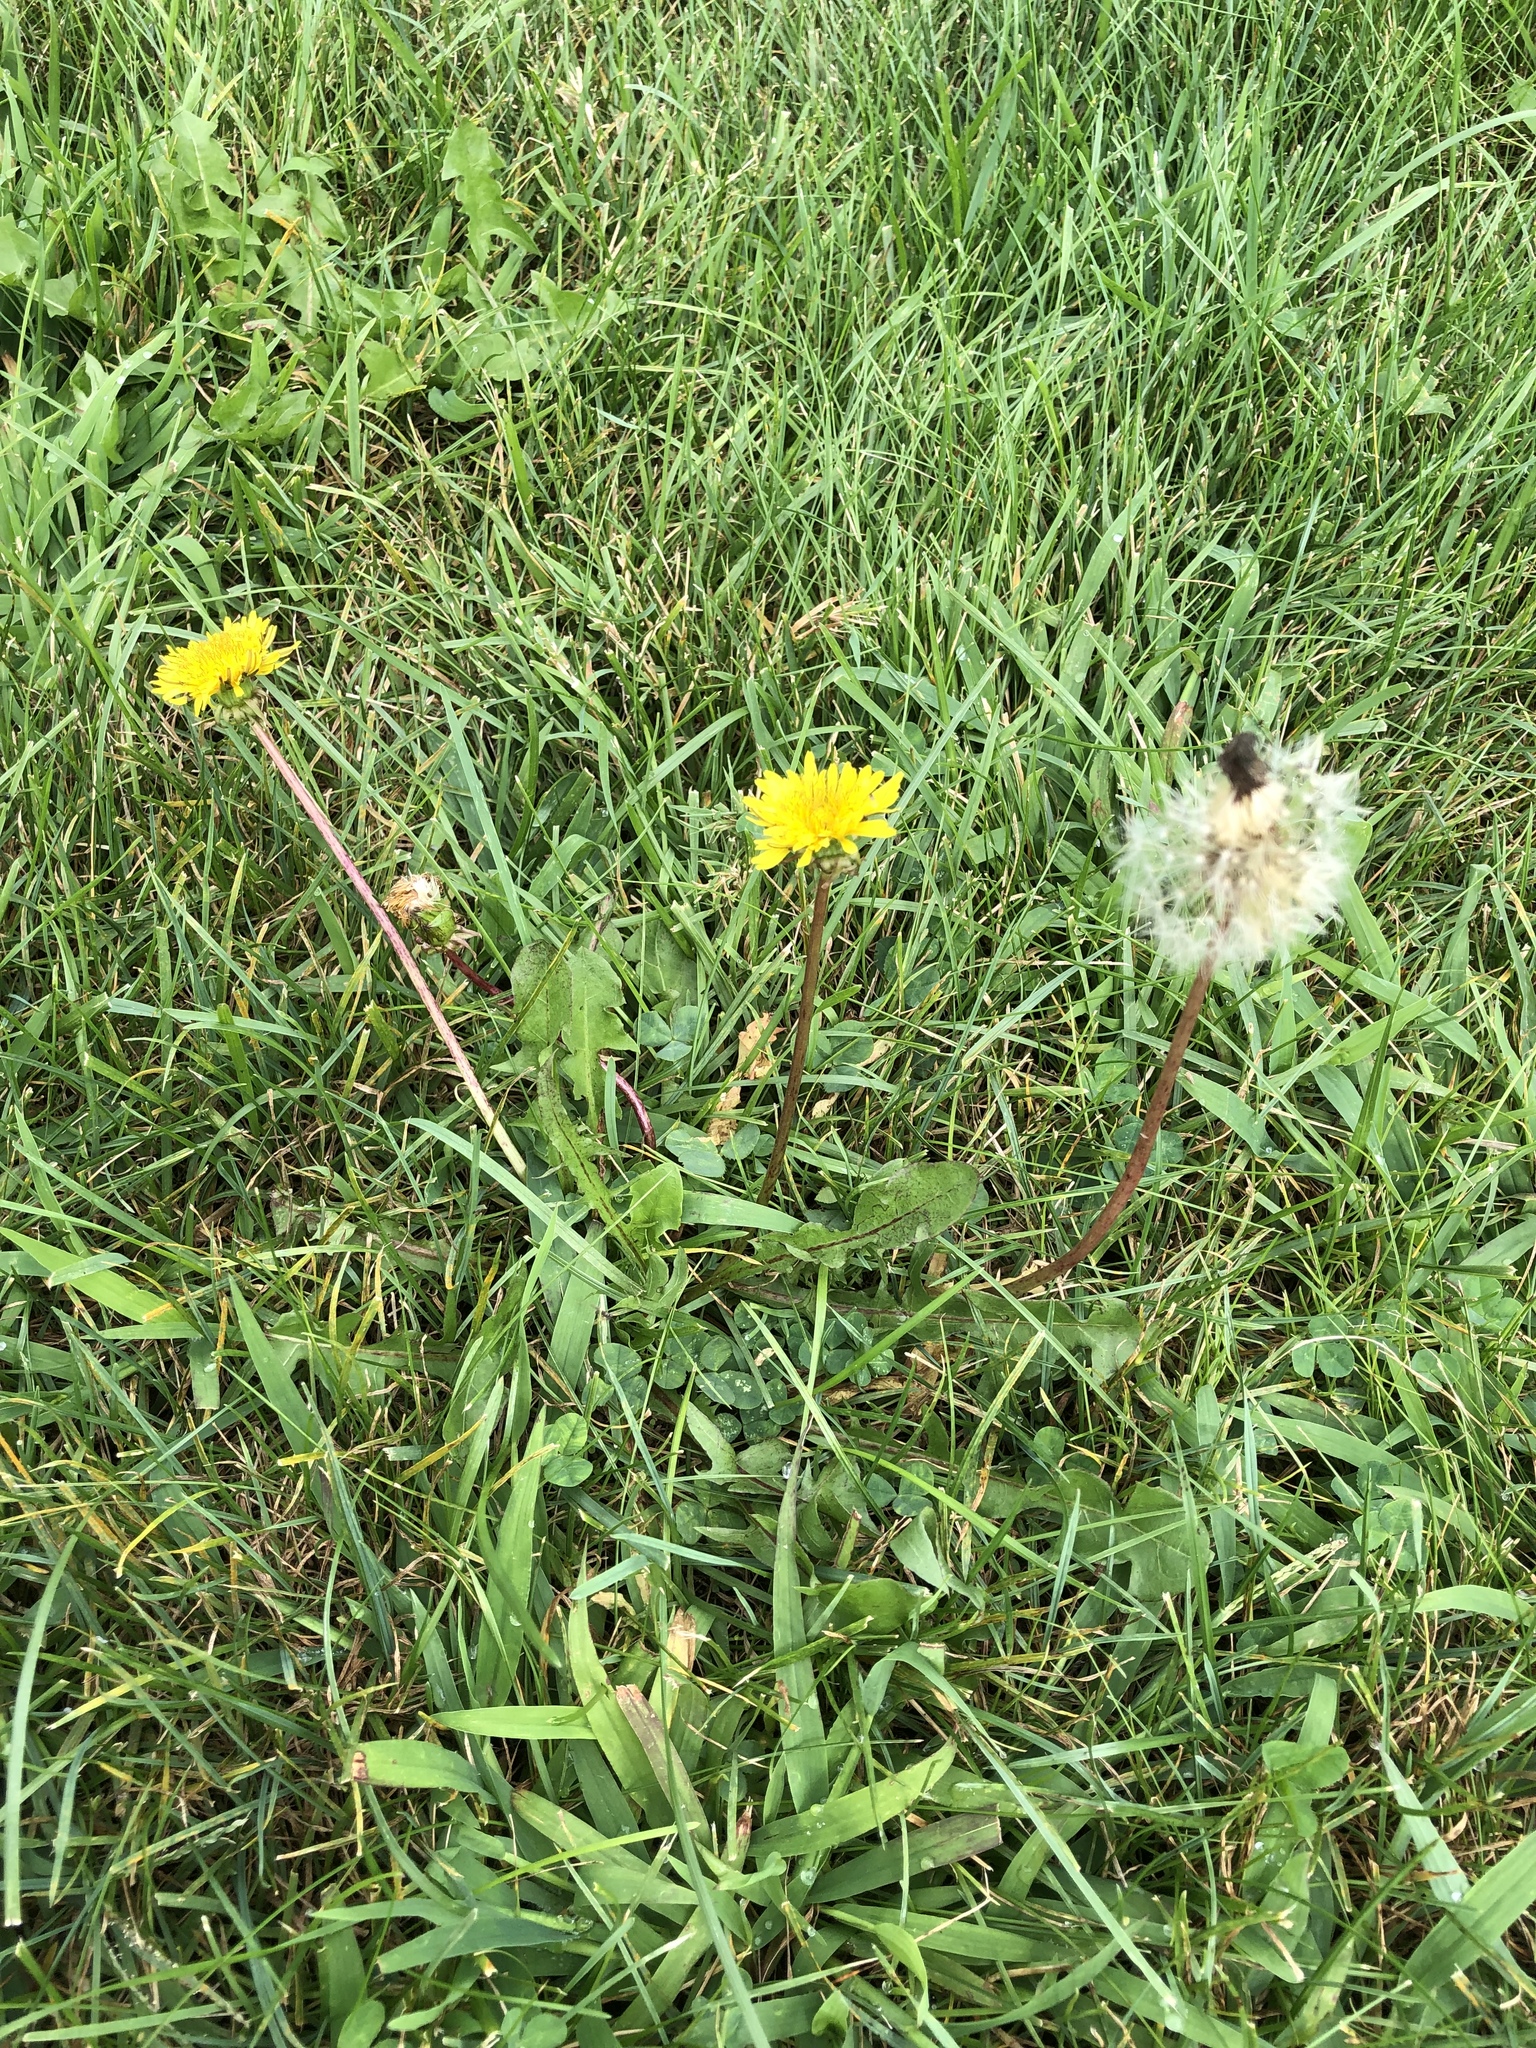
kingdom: Plantae
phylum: Tracheophyta
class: Magnoliopsida
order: Asterales
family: Asteraceae
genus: Taraxacum
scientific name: Taraxacum officinale
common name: Common dandelion
